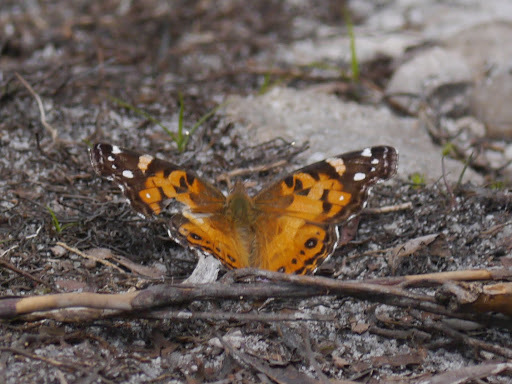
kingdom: Animalia
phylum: Arthropoda
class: Insecta
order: Lepidoptera
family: Nymphalidae
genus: Vanessa
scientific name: Vanessa virginiensis
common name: American lady
